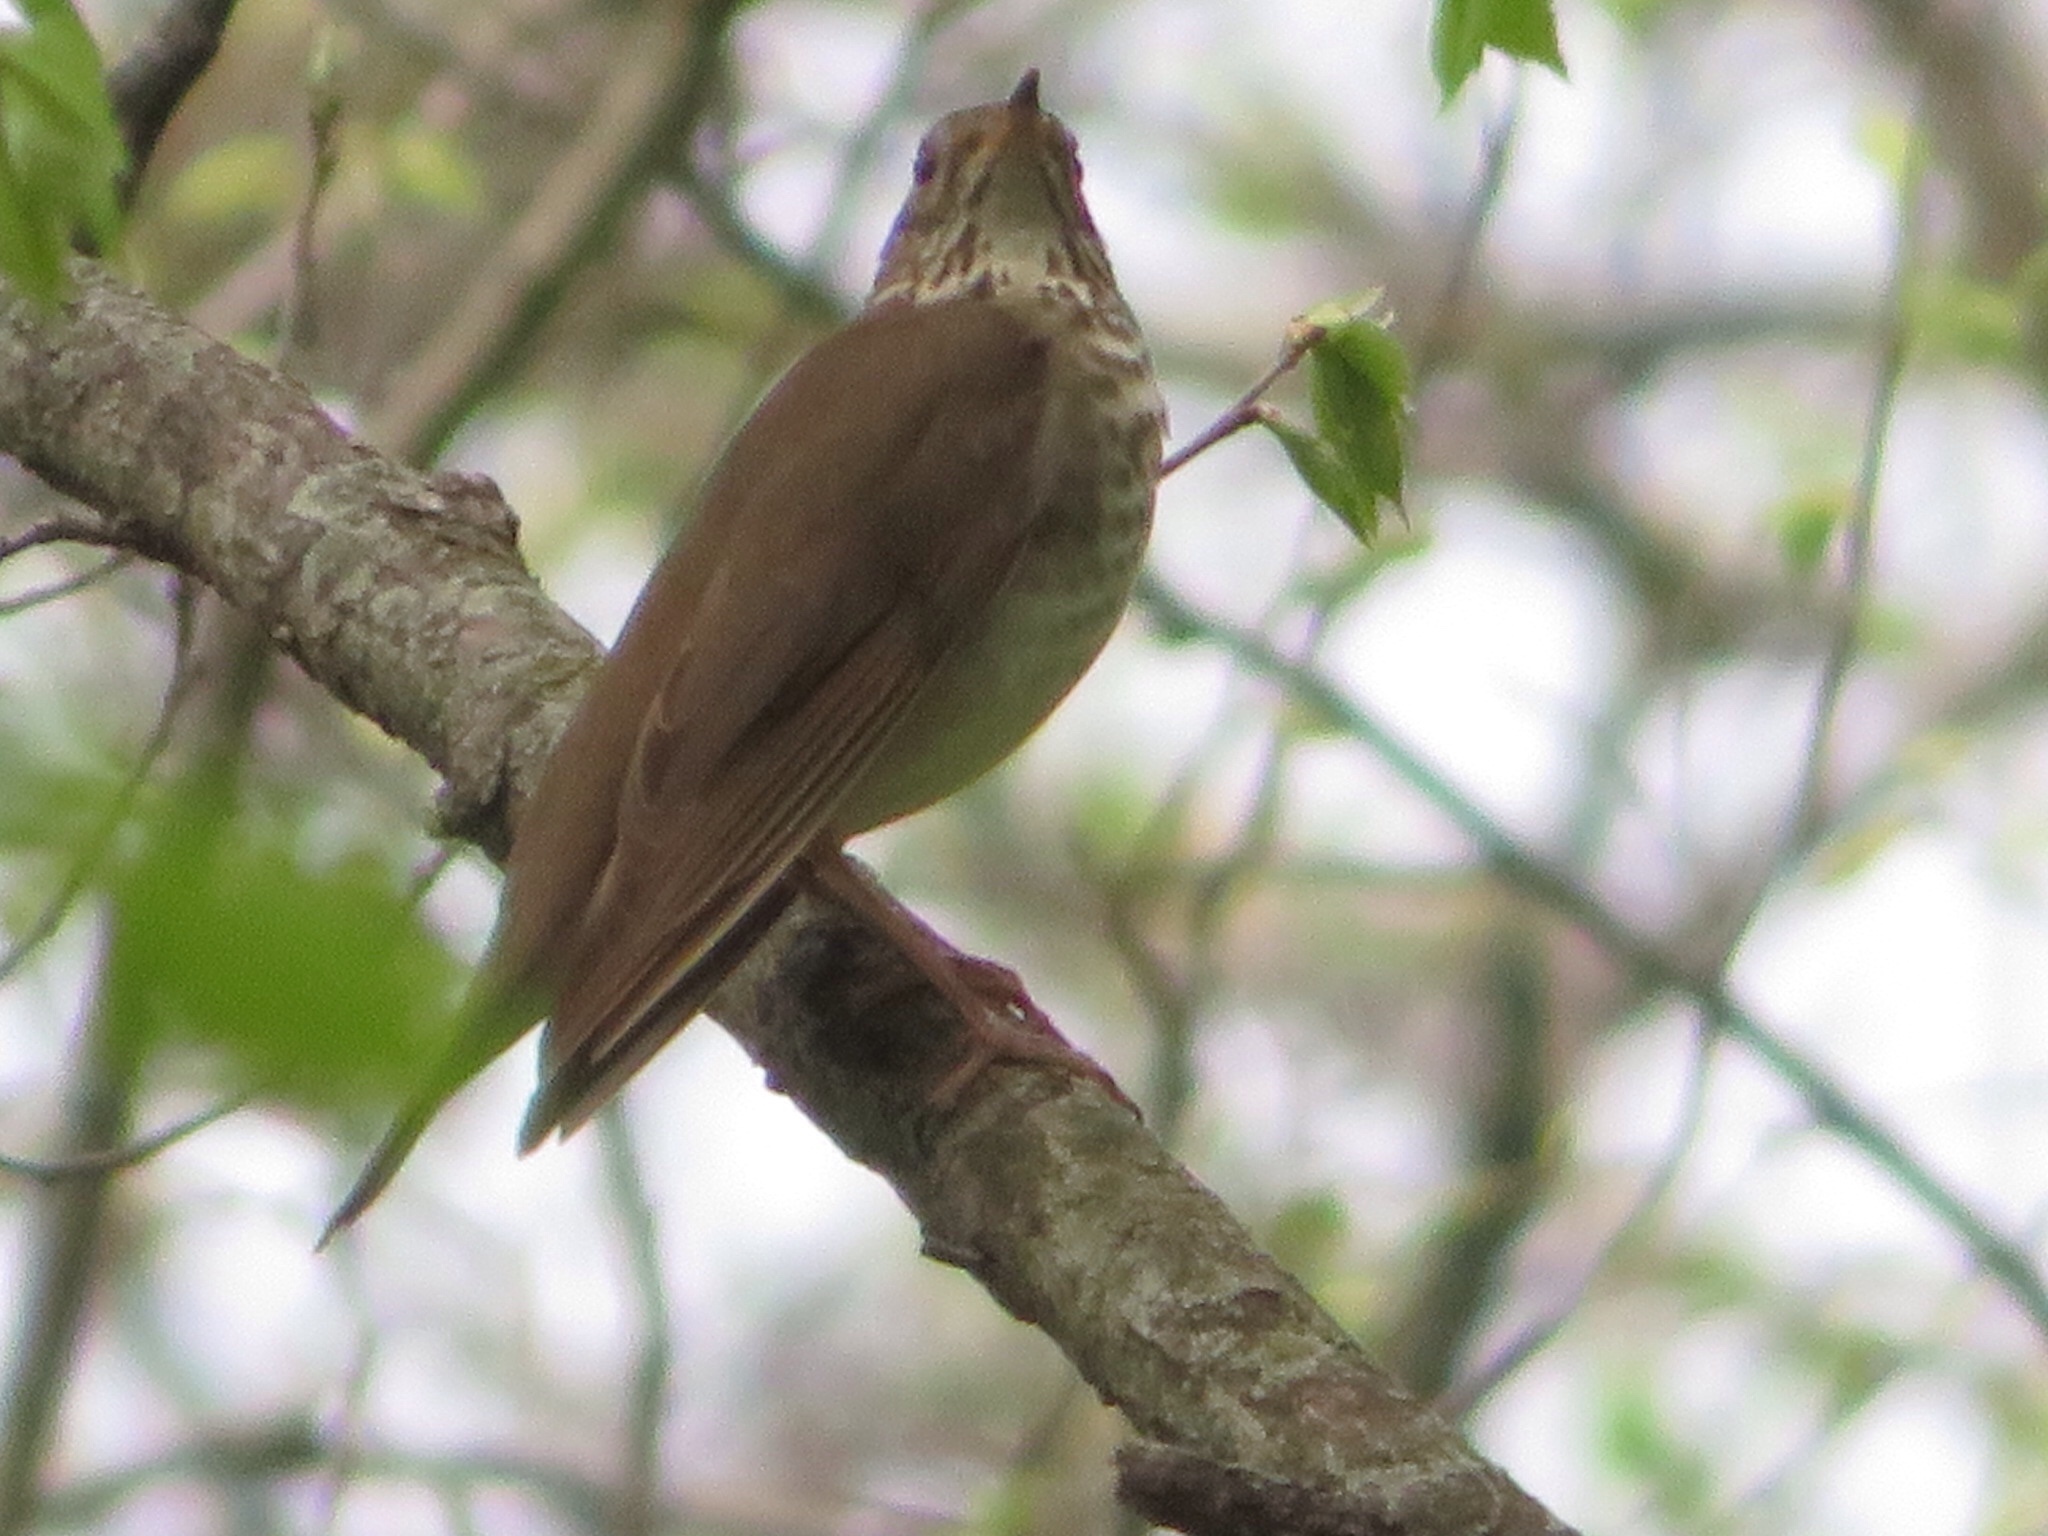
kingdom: Animalia
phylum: Chordata
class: Aves
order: Passeriformes
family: Turdidae
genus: Catharus
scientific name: Catharus minimus
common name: Grey-cheeked thrush
